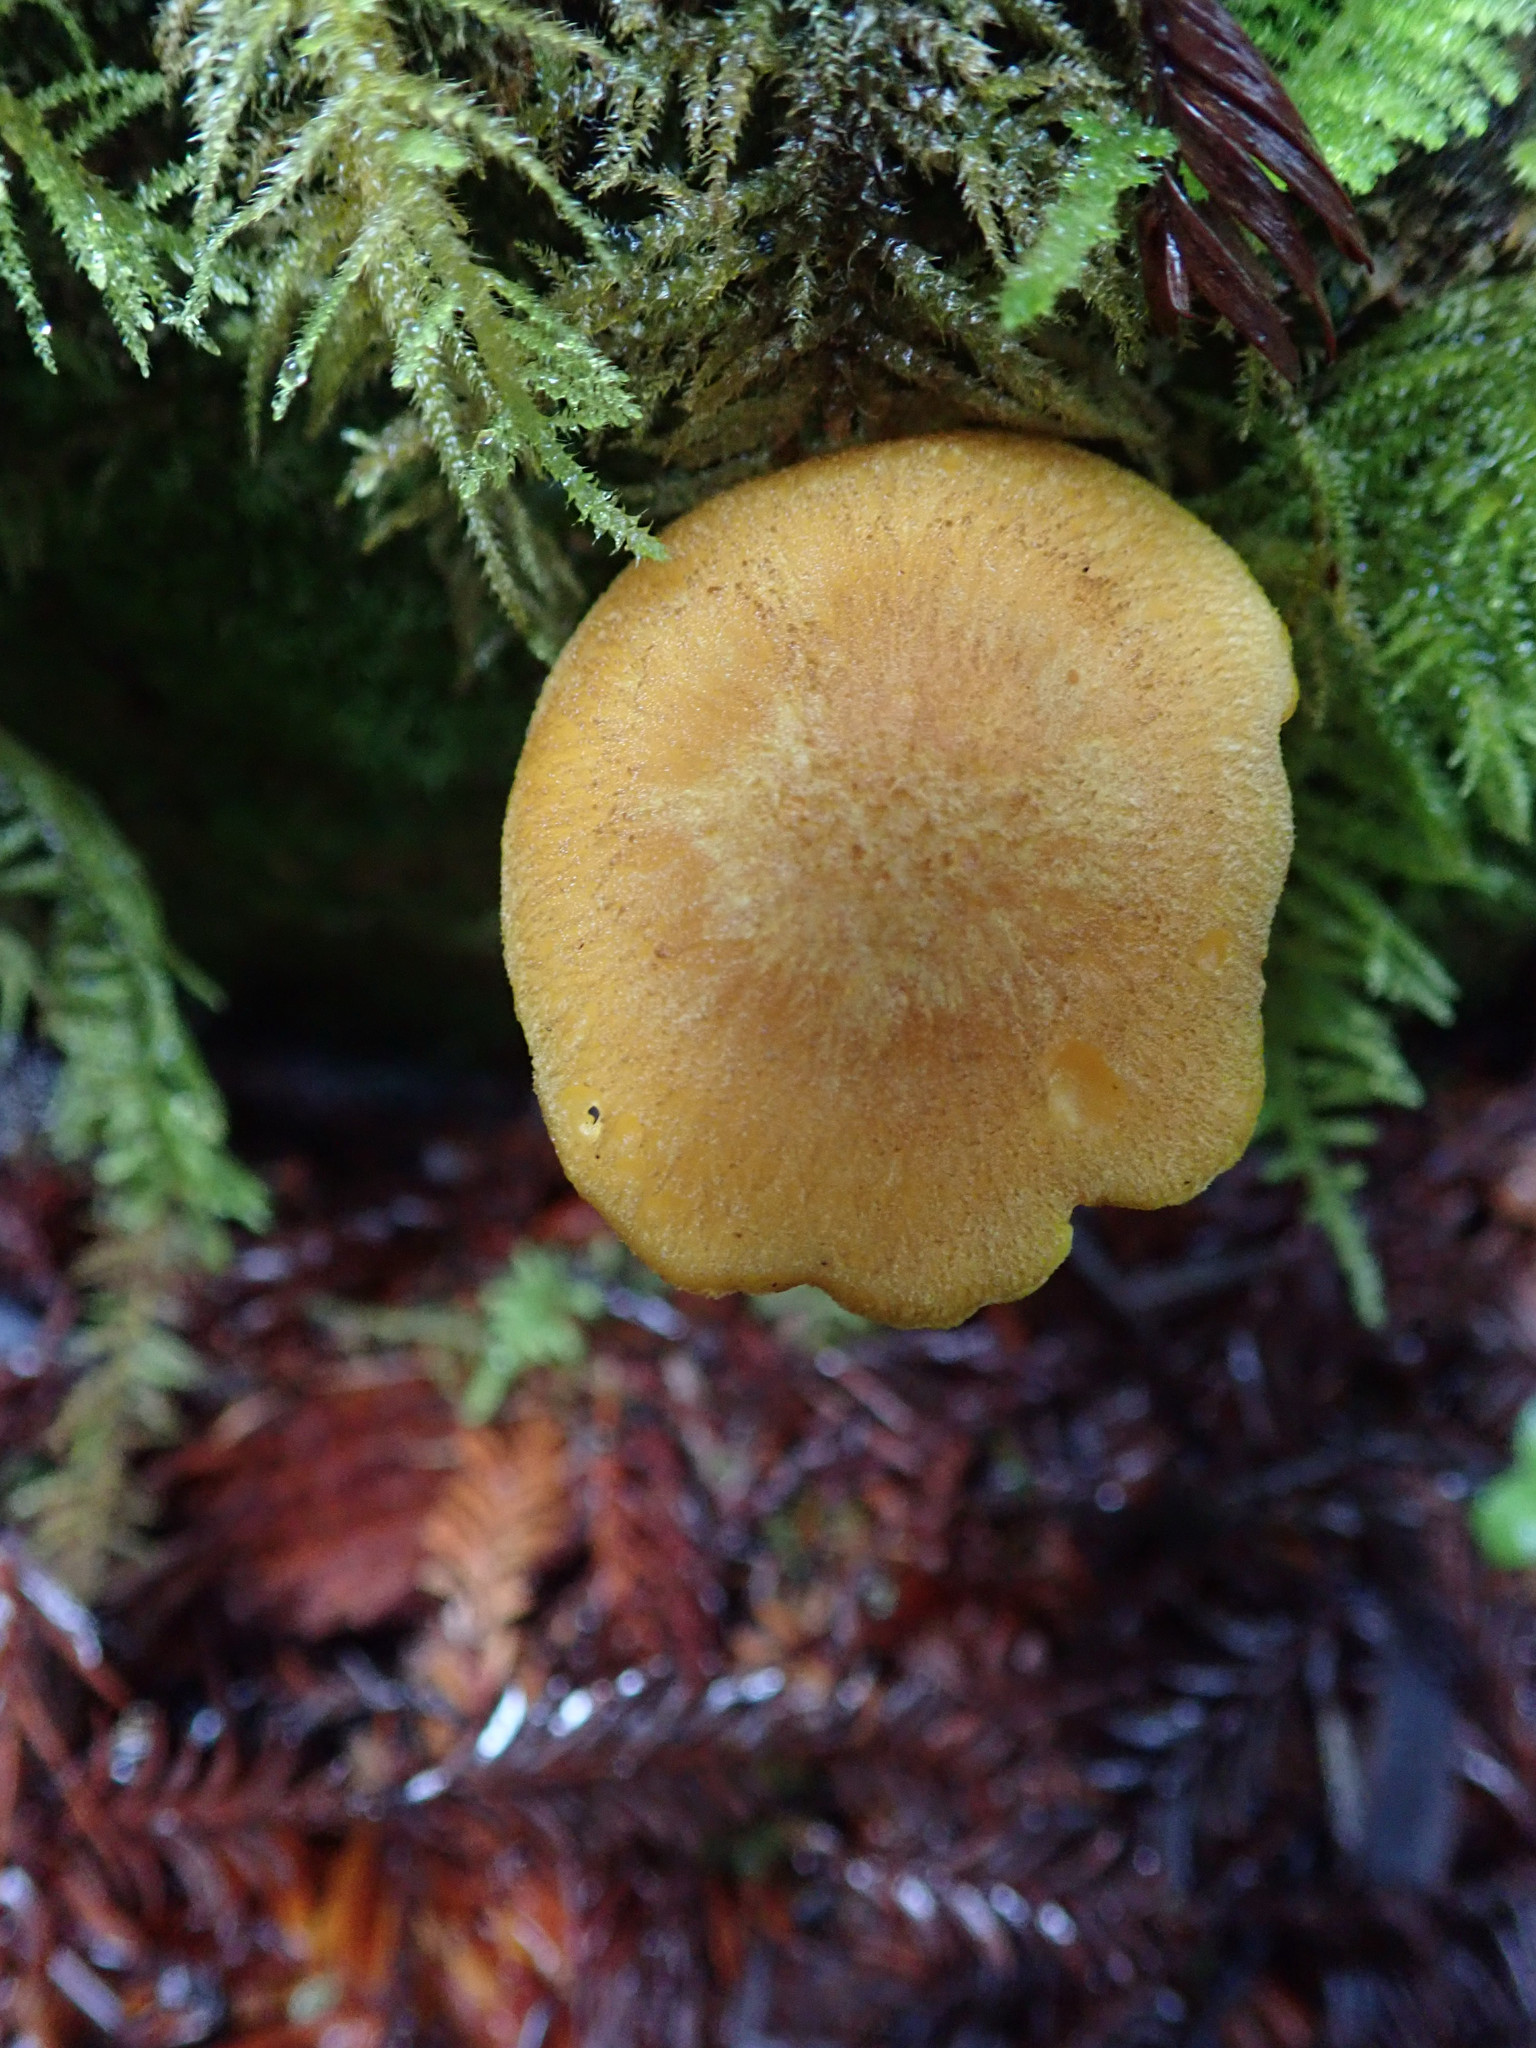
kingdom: Fungi
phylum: Basidiomycota
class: Agaricomycetes
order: Agaricales
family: Tricholomataceae
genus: Tricholomopsis
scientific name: Tricholomopsis decora
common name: Prunes and custard
